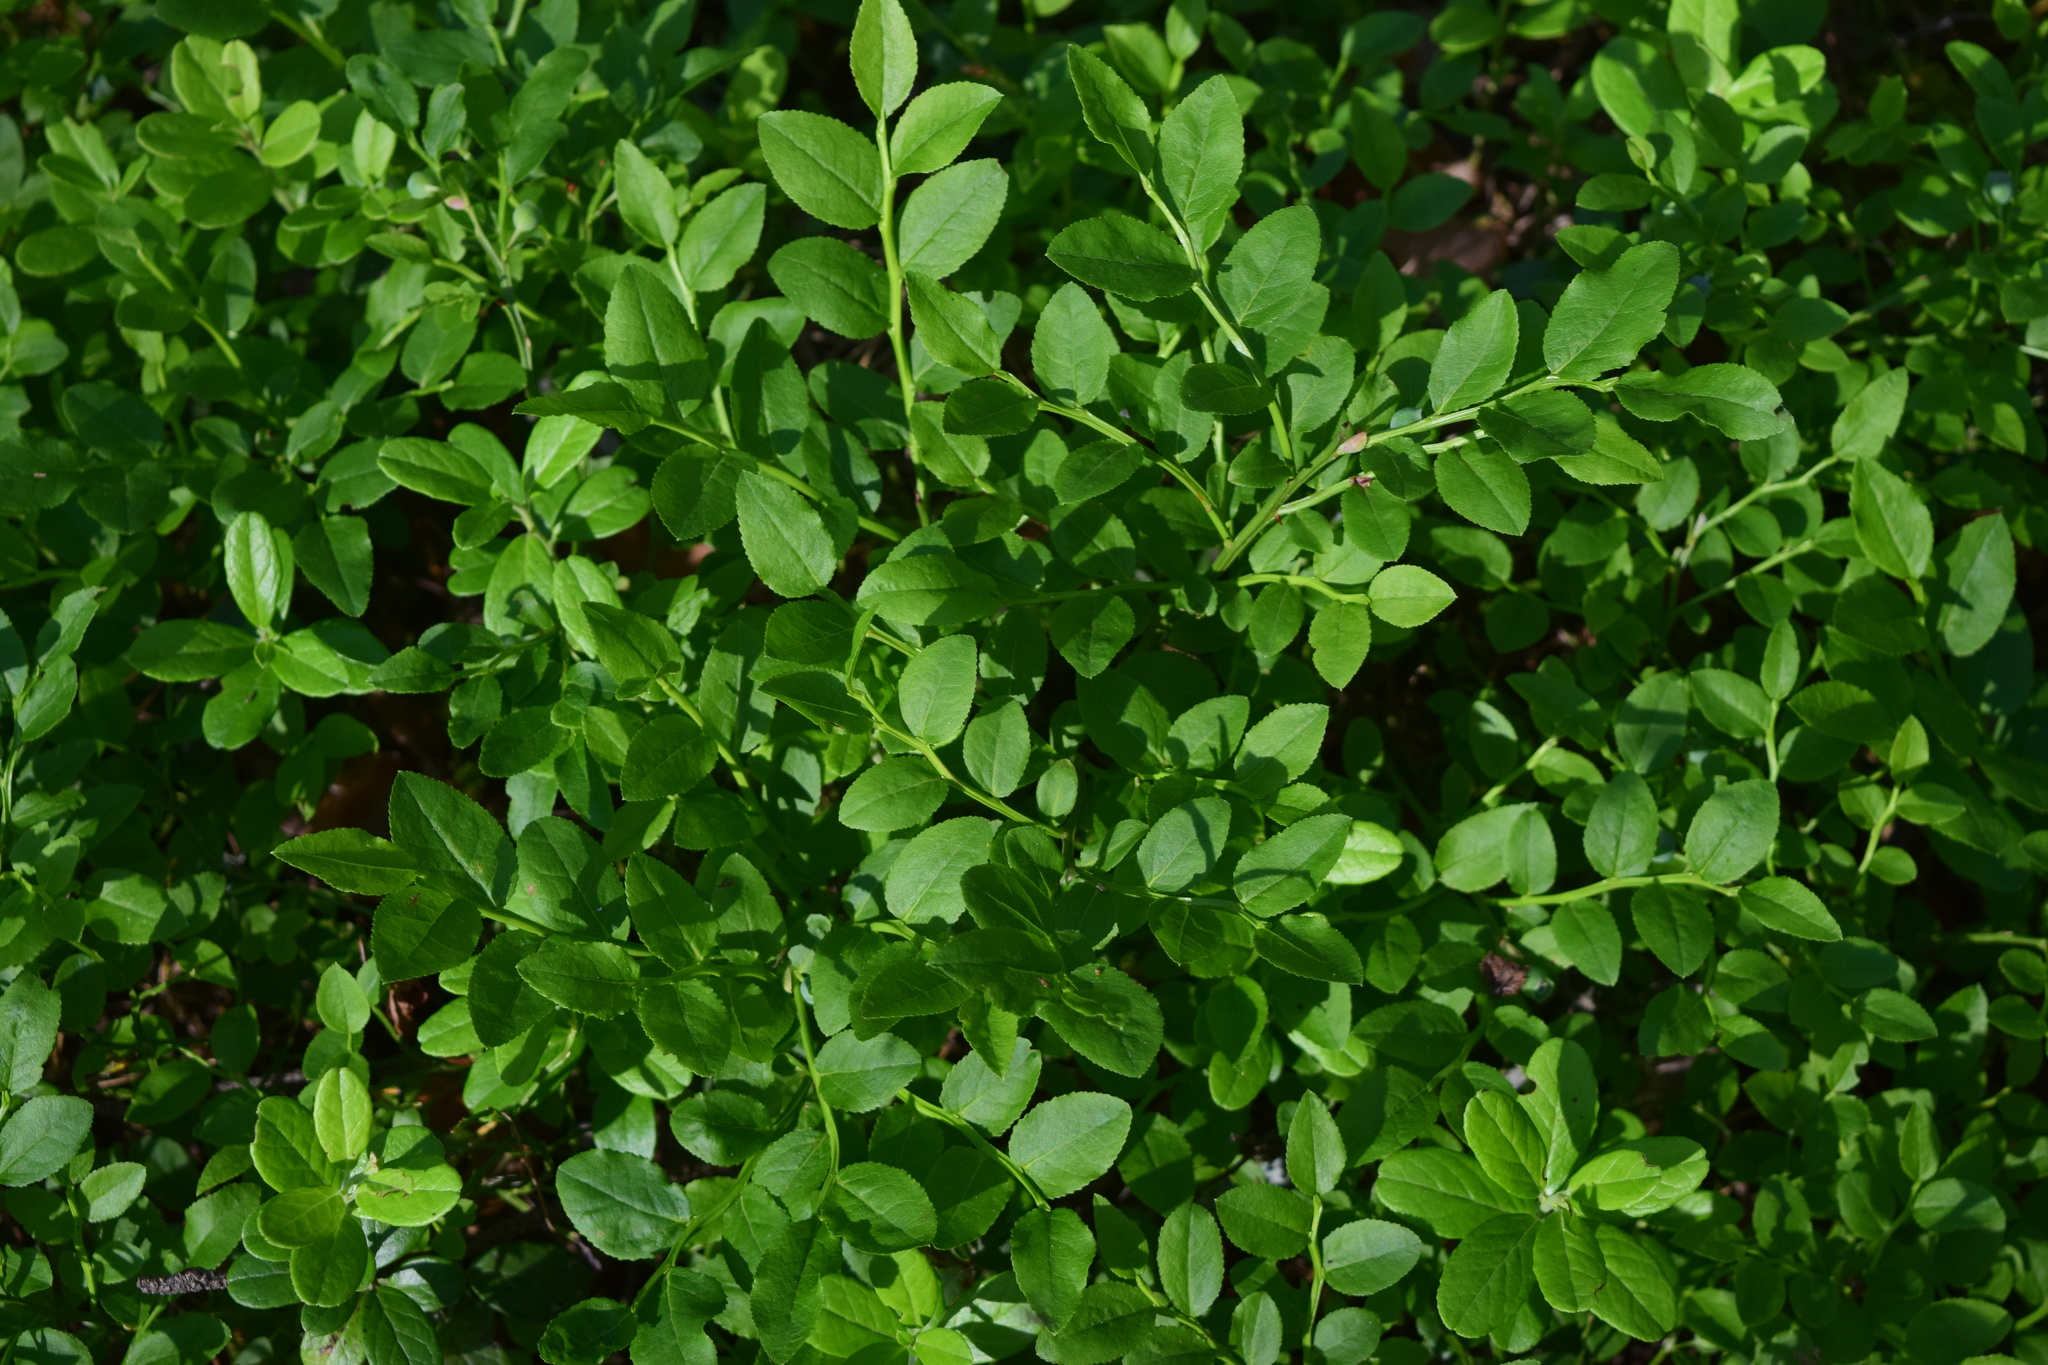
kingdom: Plantae
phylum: Tracheophyta
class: Magnoliopsida
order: Ericales
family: Ericaceae
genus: Vaccinium
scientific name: Vaccinium myrtillus
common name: Bilberry
